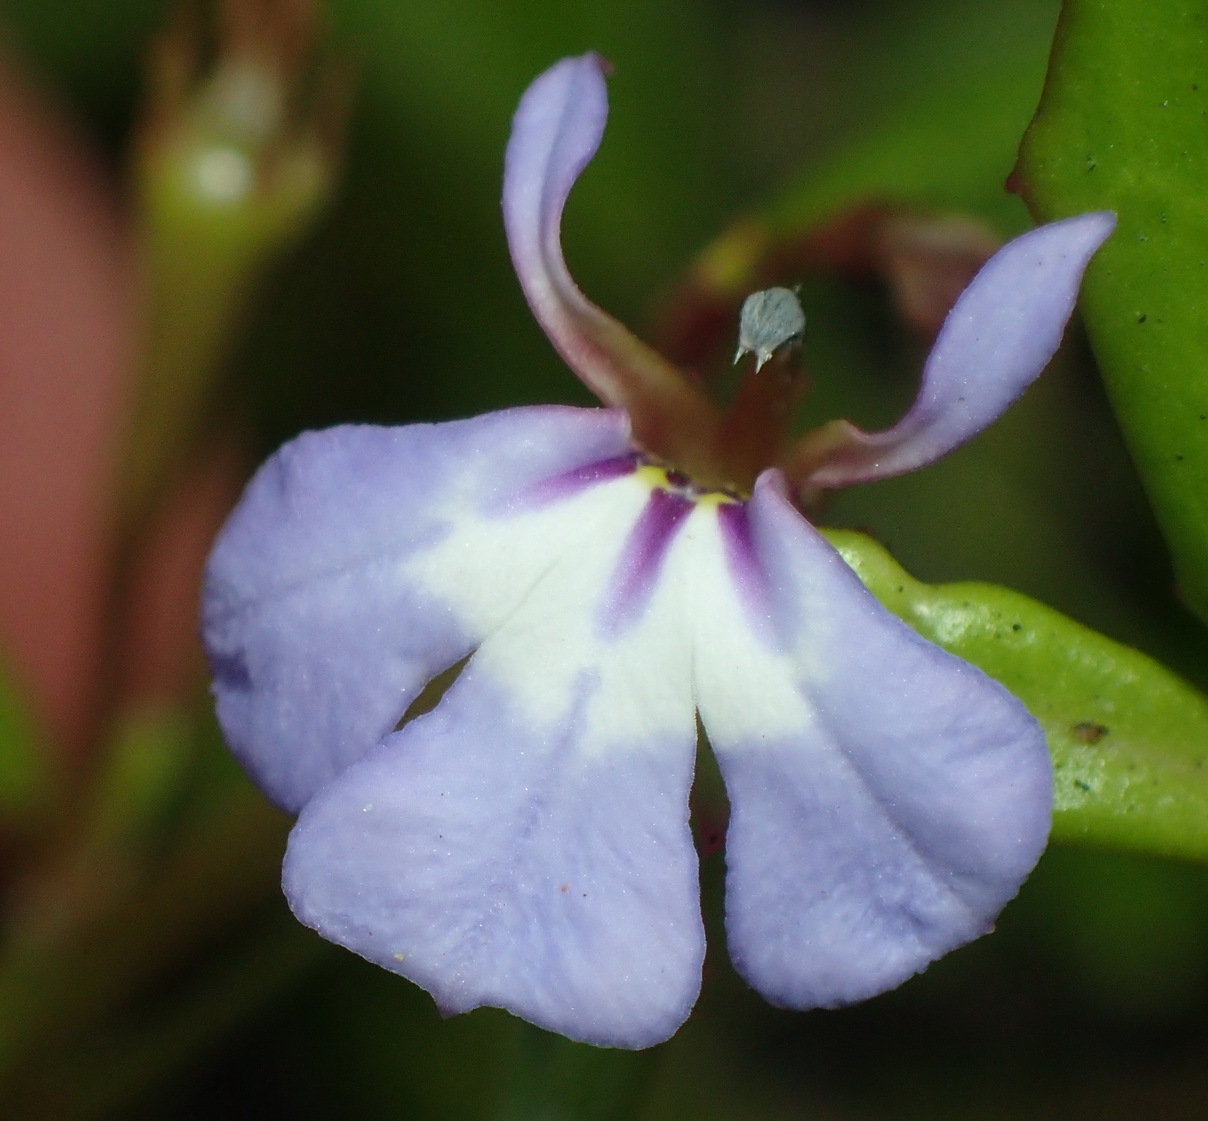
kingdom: Plantae
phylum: Tracheophyta
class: Magnoliopsida
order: Asterales
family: Campanulaceae
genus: Lobelia
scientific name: Lobelia anceps
